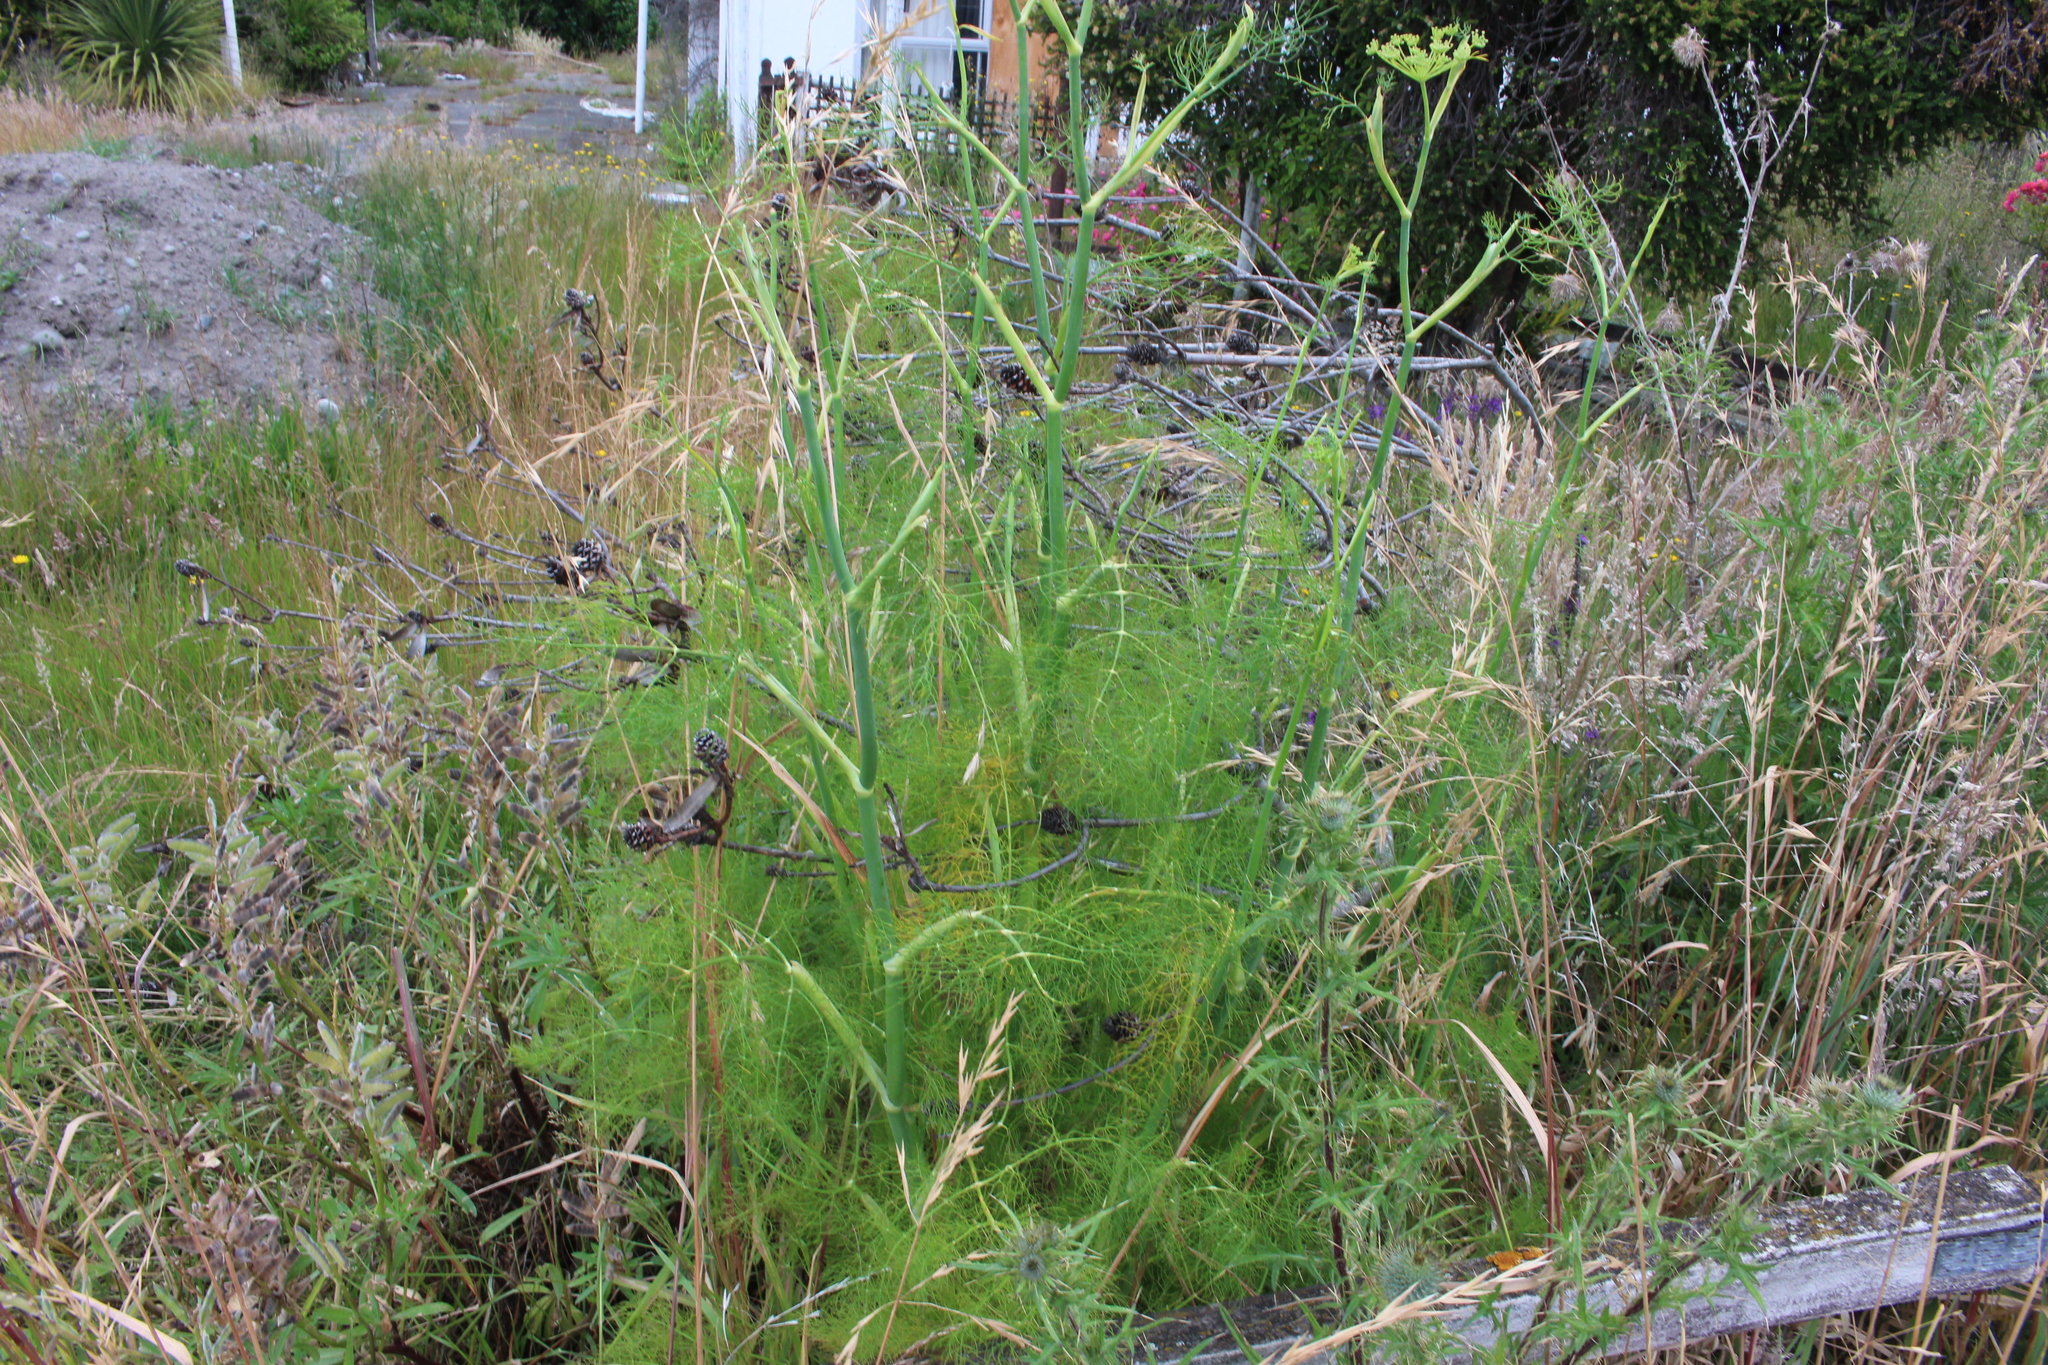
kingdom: Plantae
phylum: Tracheophyta
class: Magnoliopsida
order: Apiales
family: Apiaceae
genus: Foeniculum
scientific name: Foeniculum vulgare
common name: Fennel
